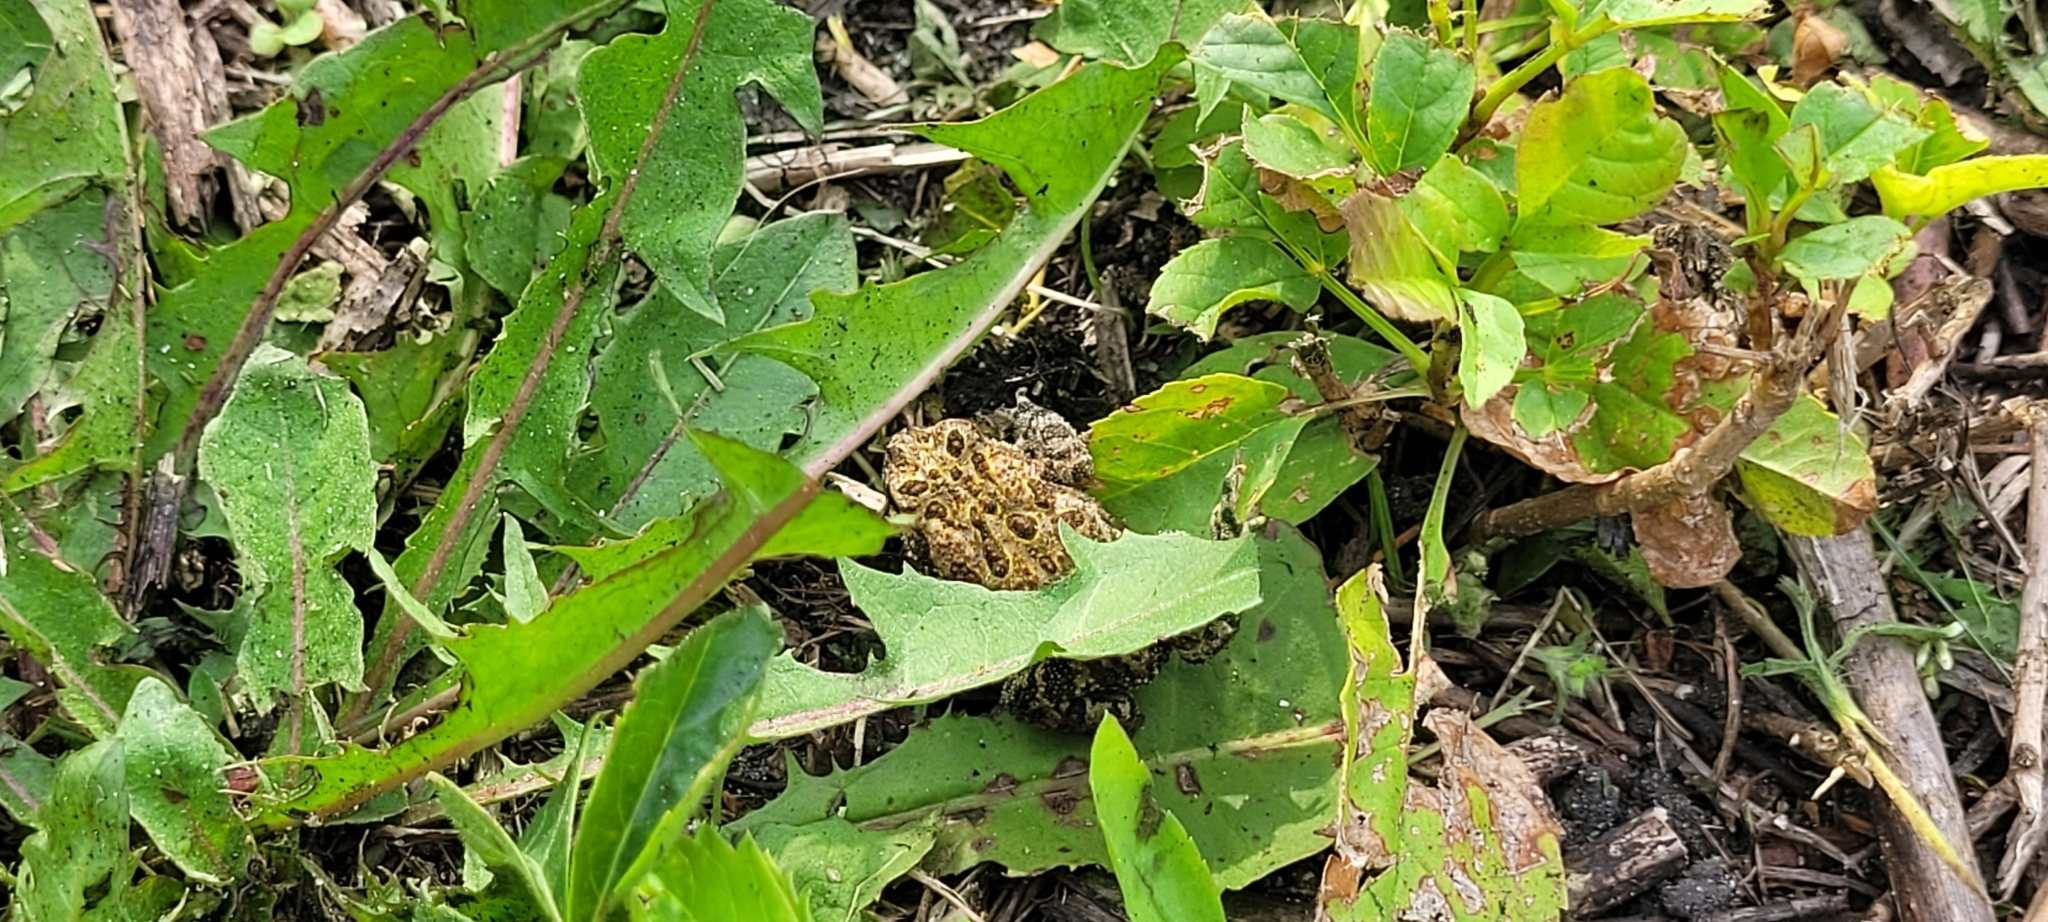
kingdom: Animalia
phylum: Chordata
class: Amphibia
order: Anura
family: Bufonidae
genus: Anaxyrus
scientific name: Anaxyrus hemiophrys
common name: Canadian toad
